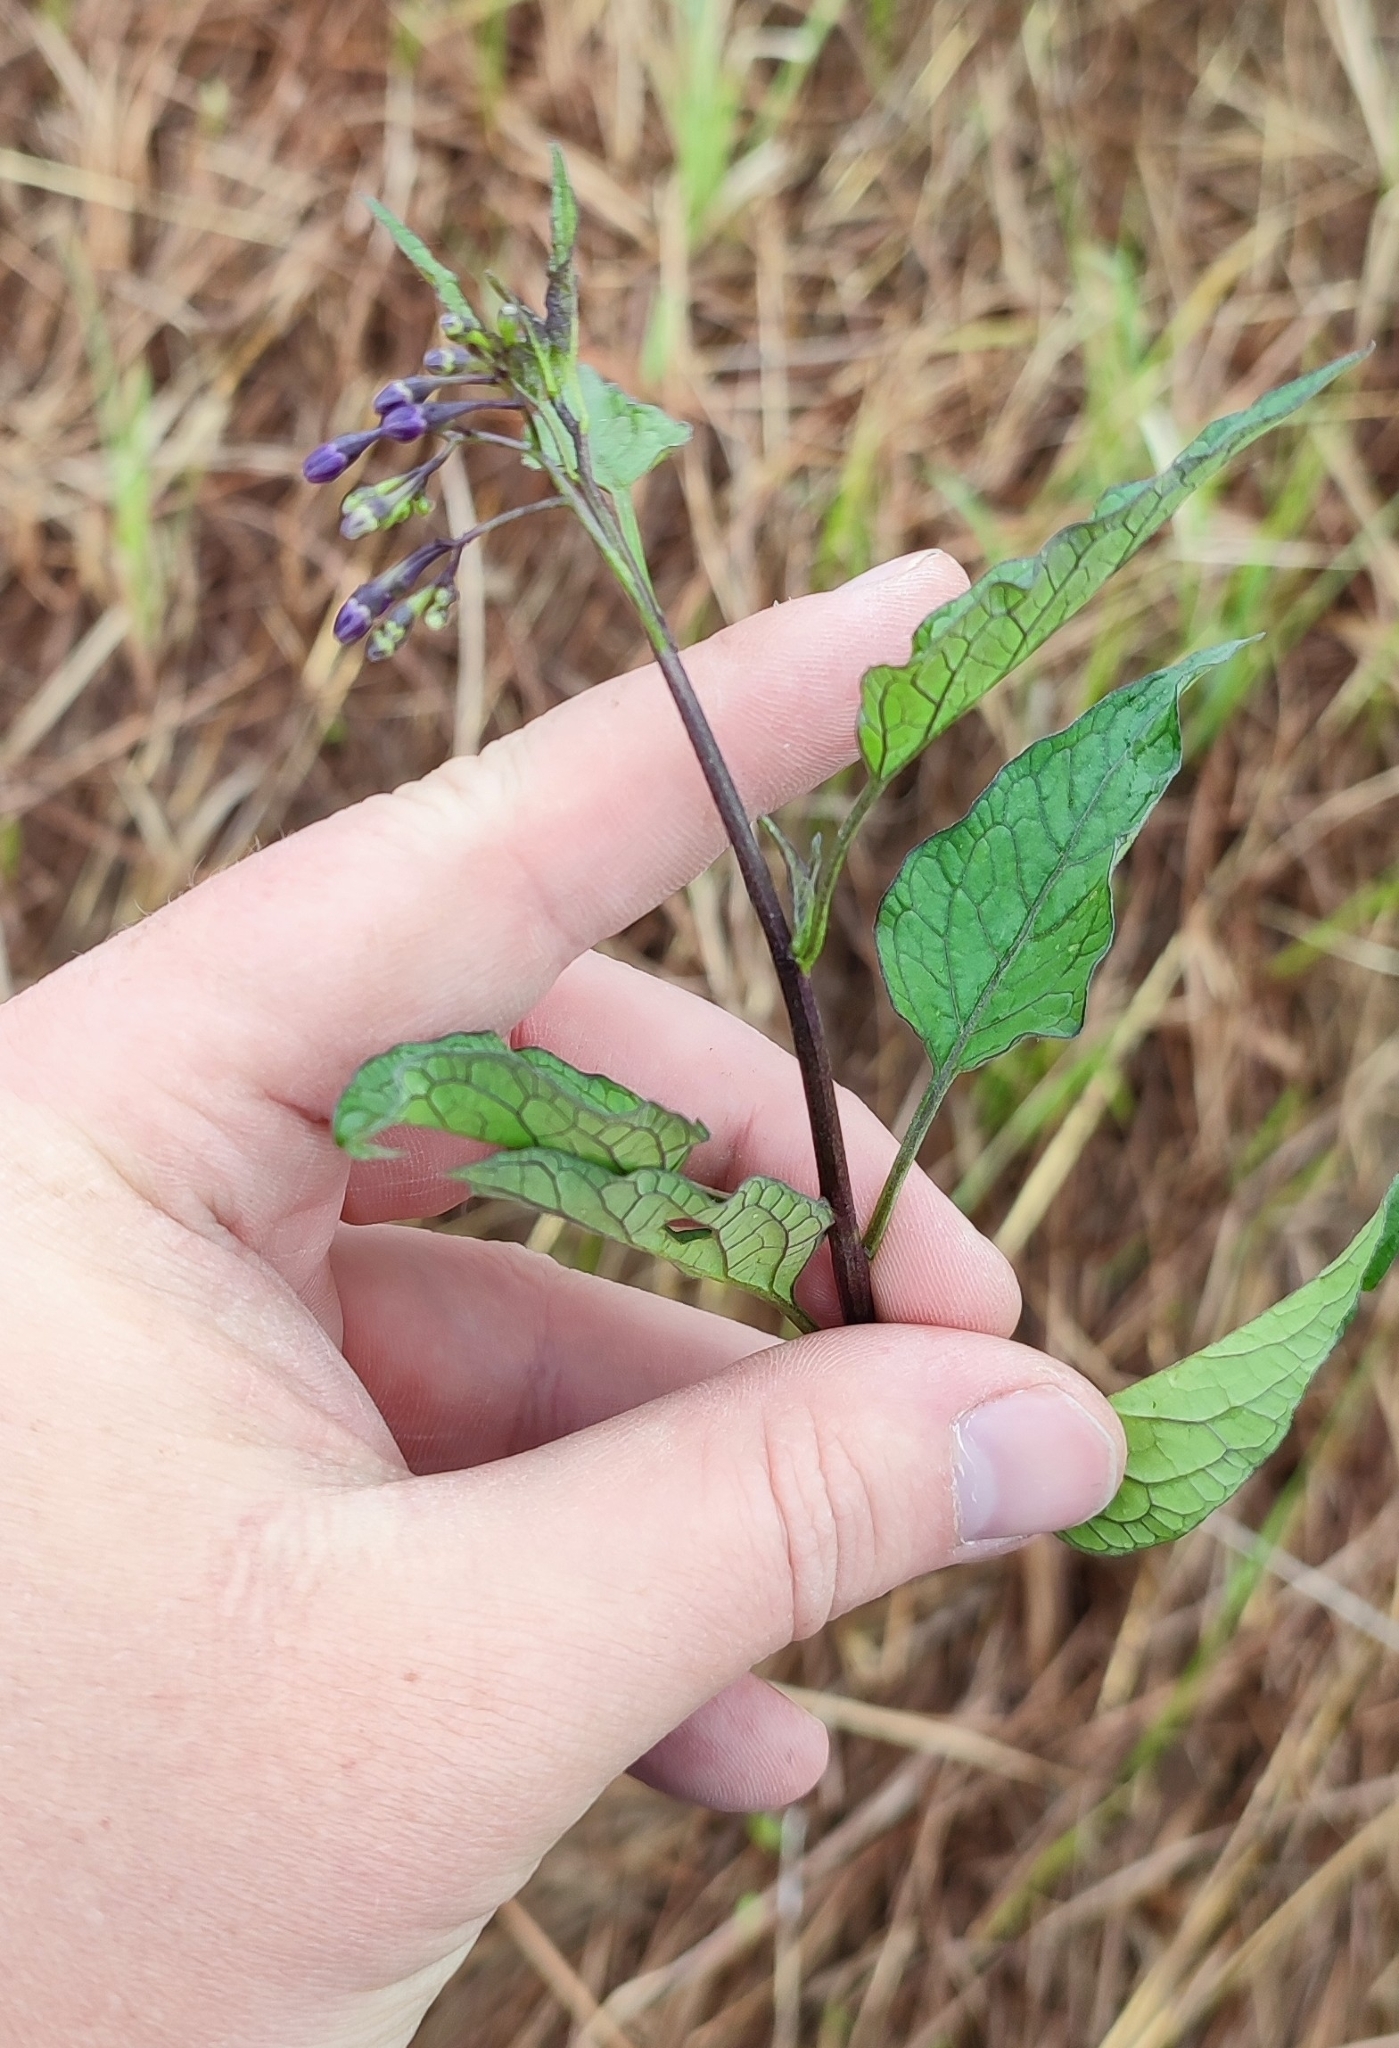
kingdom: Plantae
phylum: Tracheophyta
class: Magnoliopsida
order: Solanales
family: Solanaceae
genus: Solanum
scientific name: Solanum dulcamara
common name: Climbing nightshade
